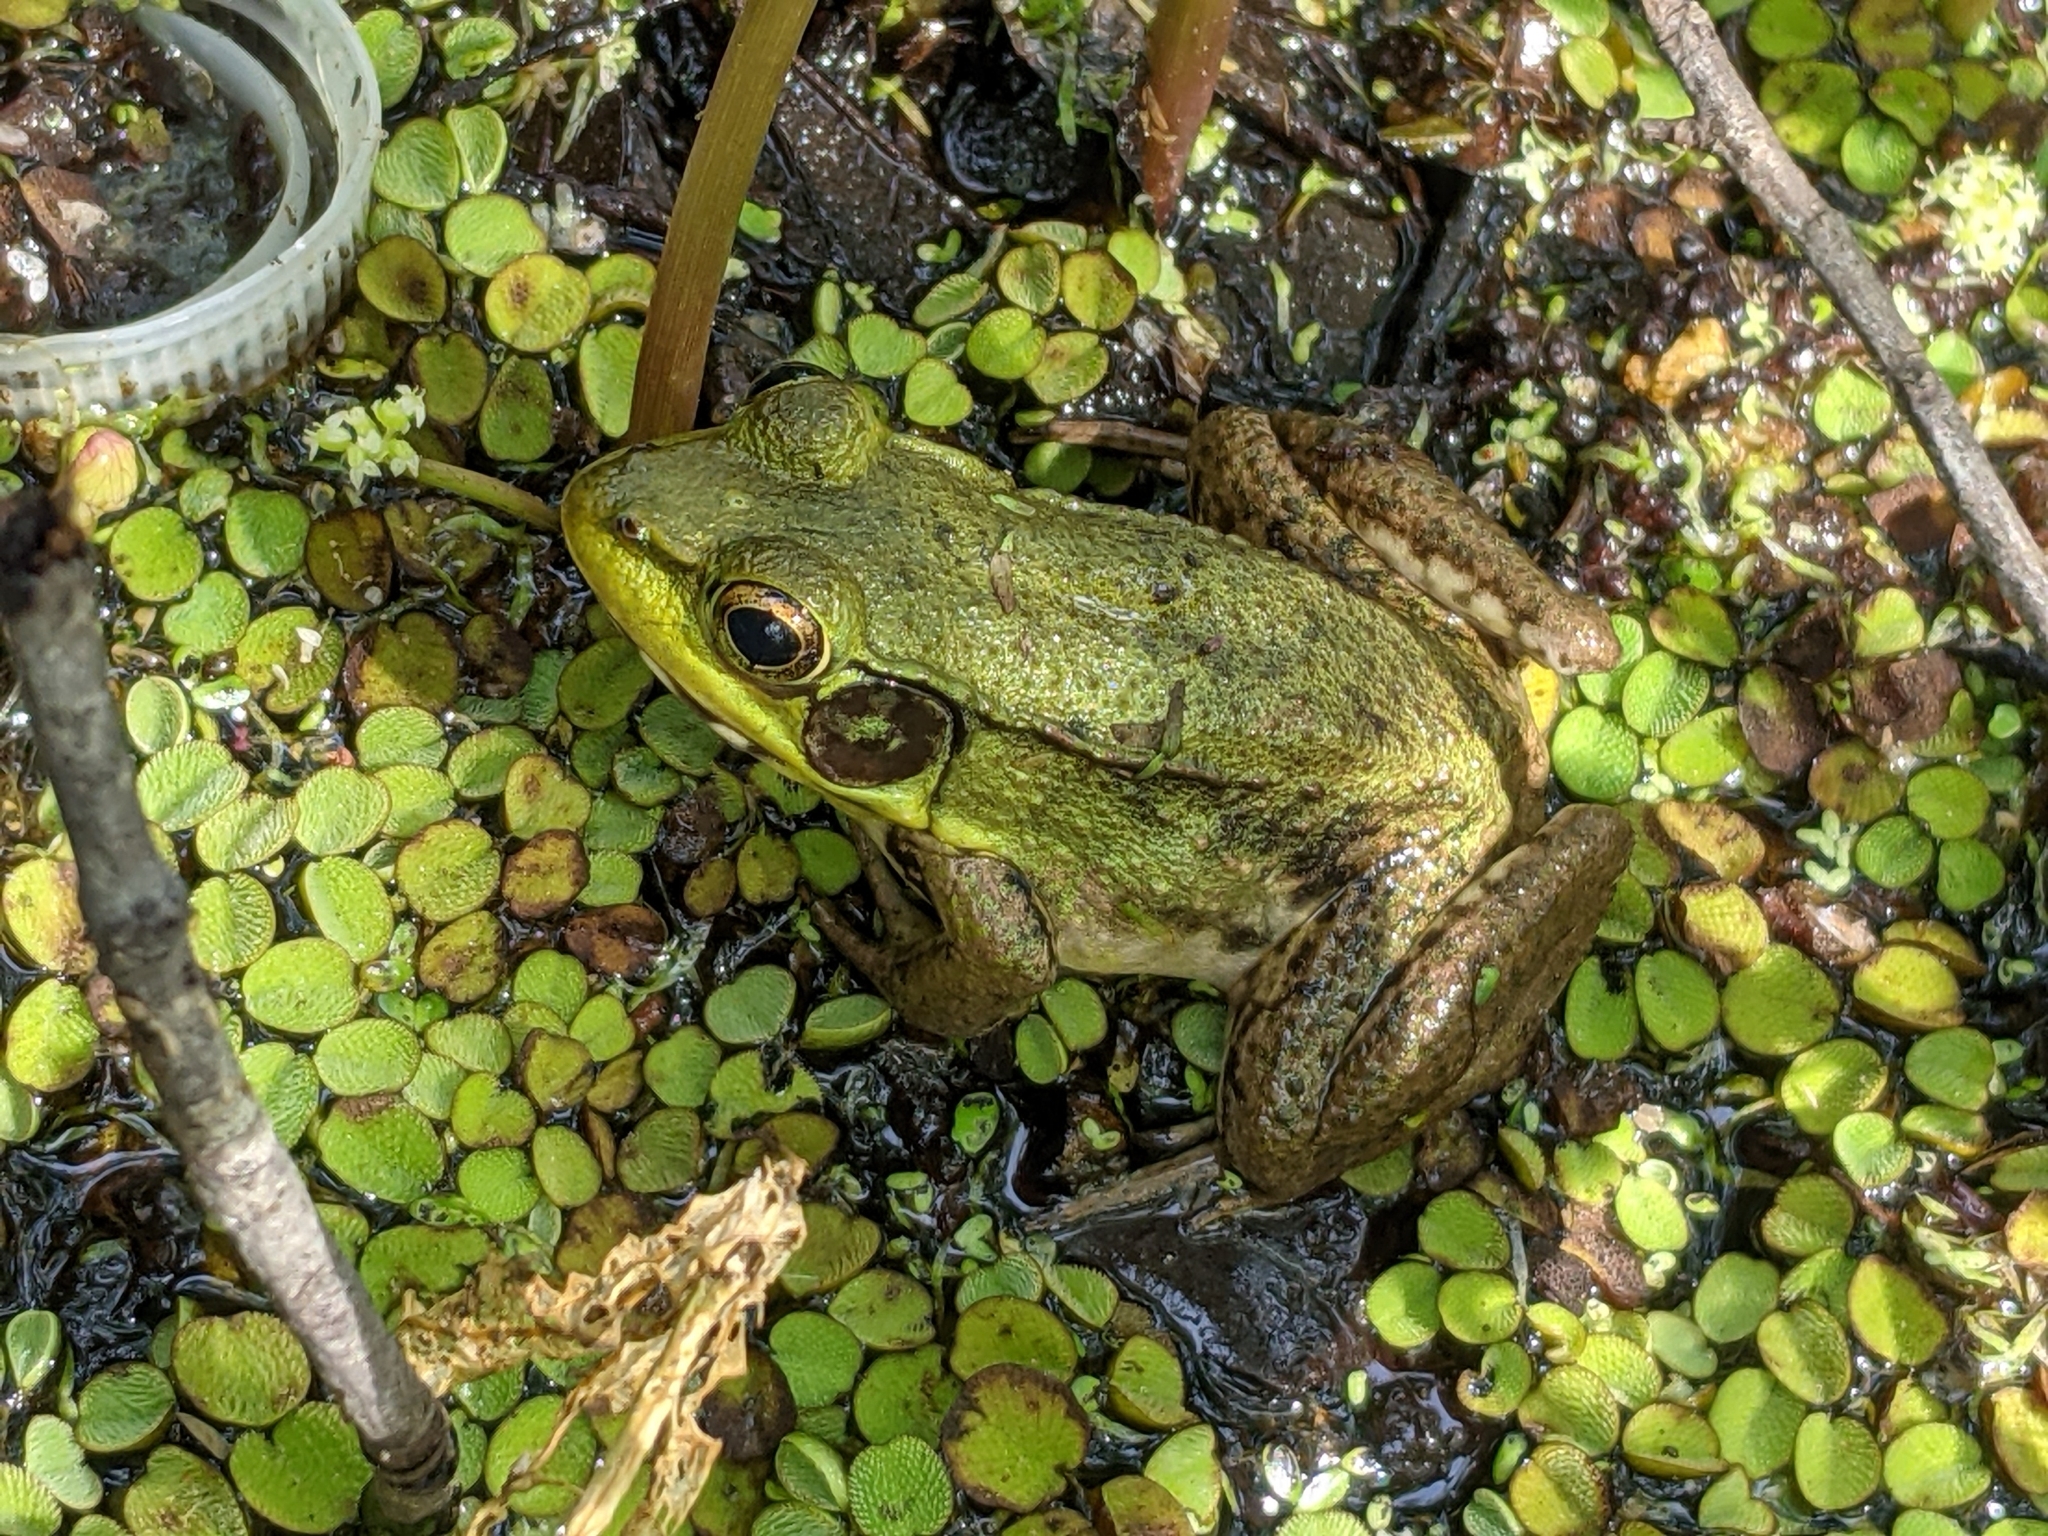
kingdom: Animalia
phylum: Chordata
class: Amphibia
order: Anura
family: Ranidae
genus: Lithobates
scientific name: Lithobates clamitans
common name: Green frog
